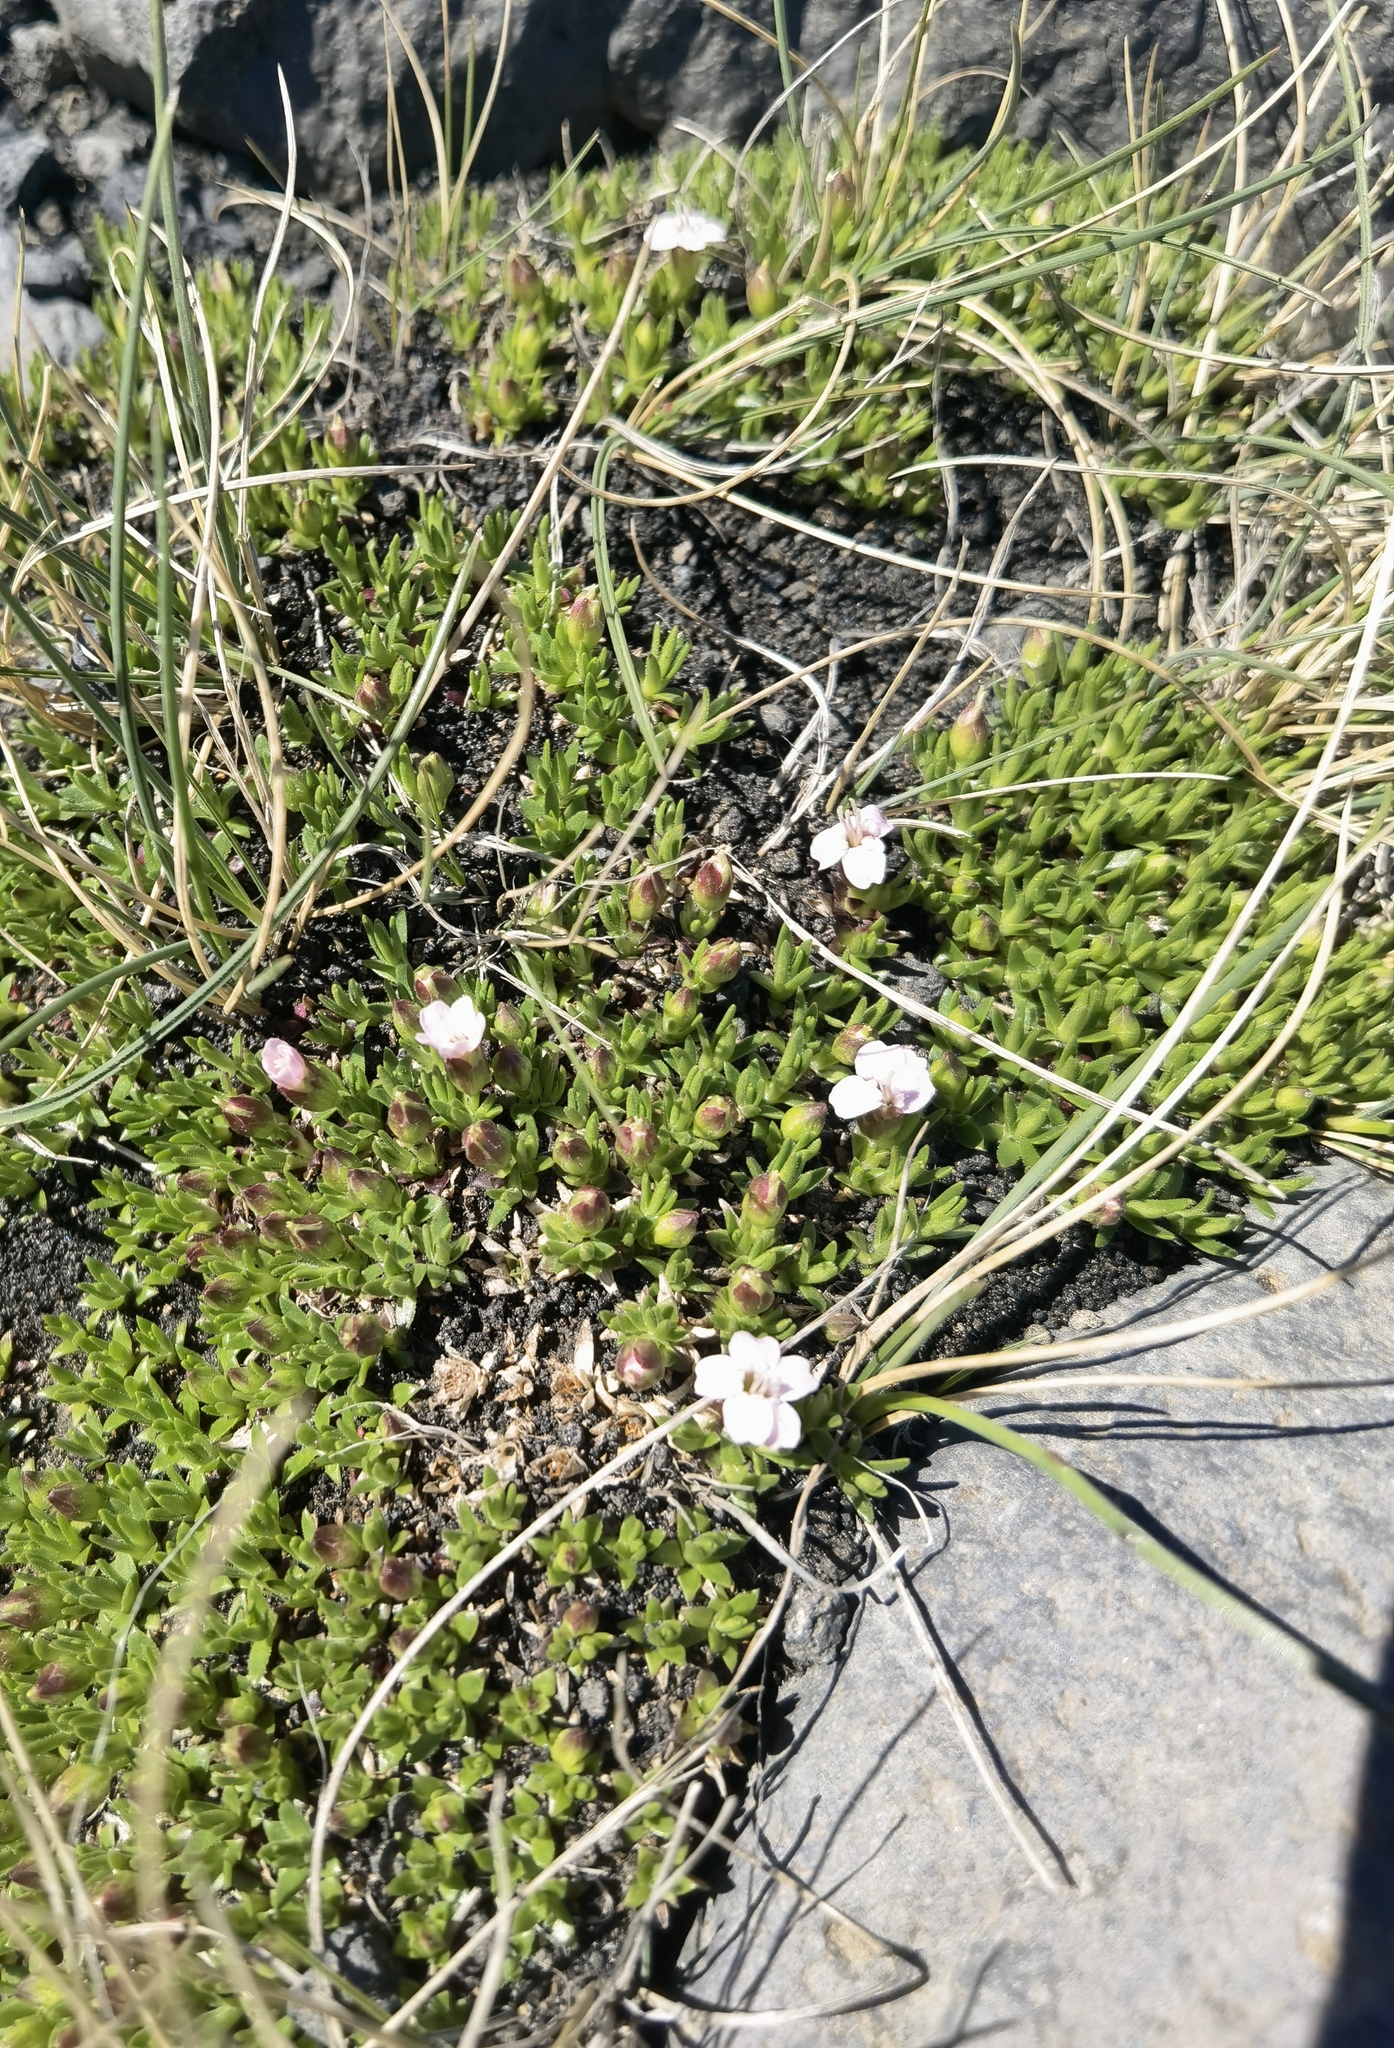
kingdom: Plantae
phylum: Tracheophyta
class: Magnoliopsida
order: Caryophyllales
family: Caryophyllaceae
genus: Silene
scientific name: Silene acaulis
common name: Moss campion
